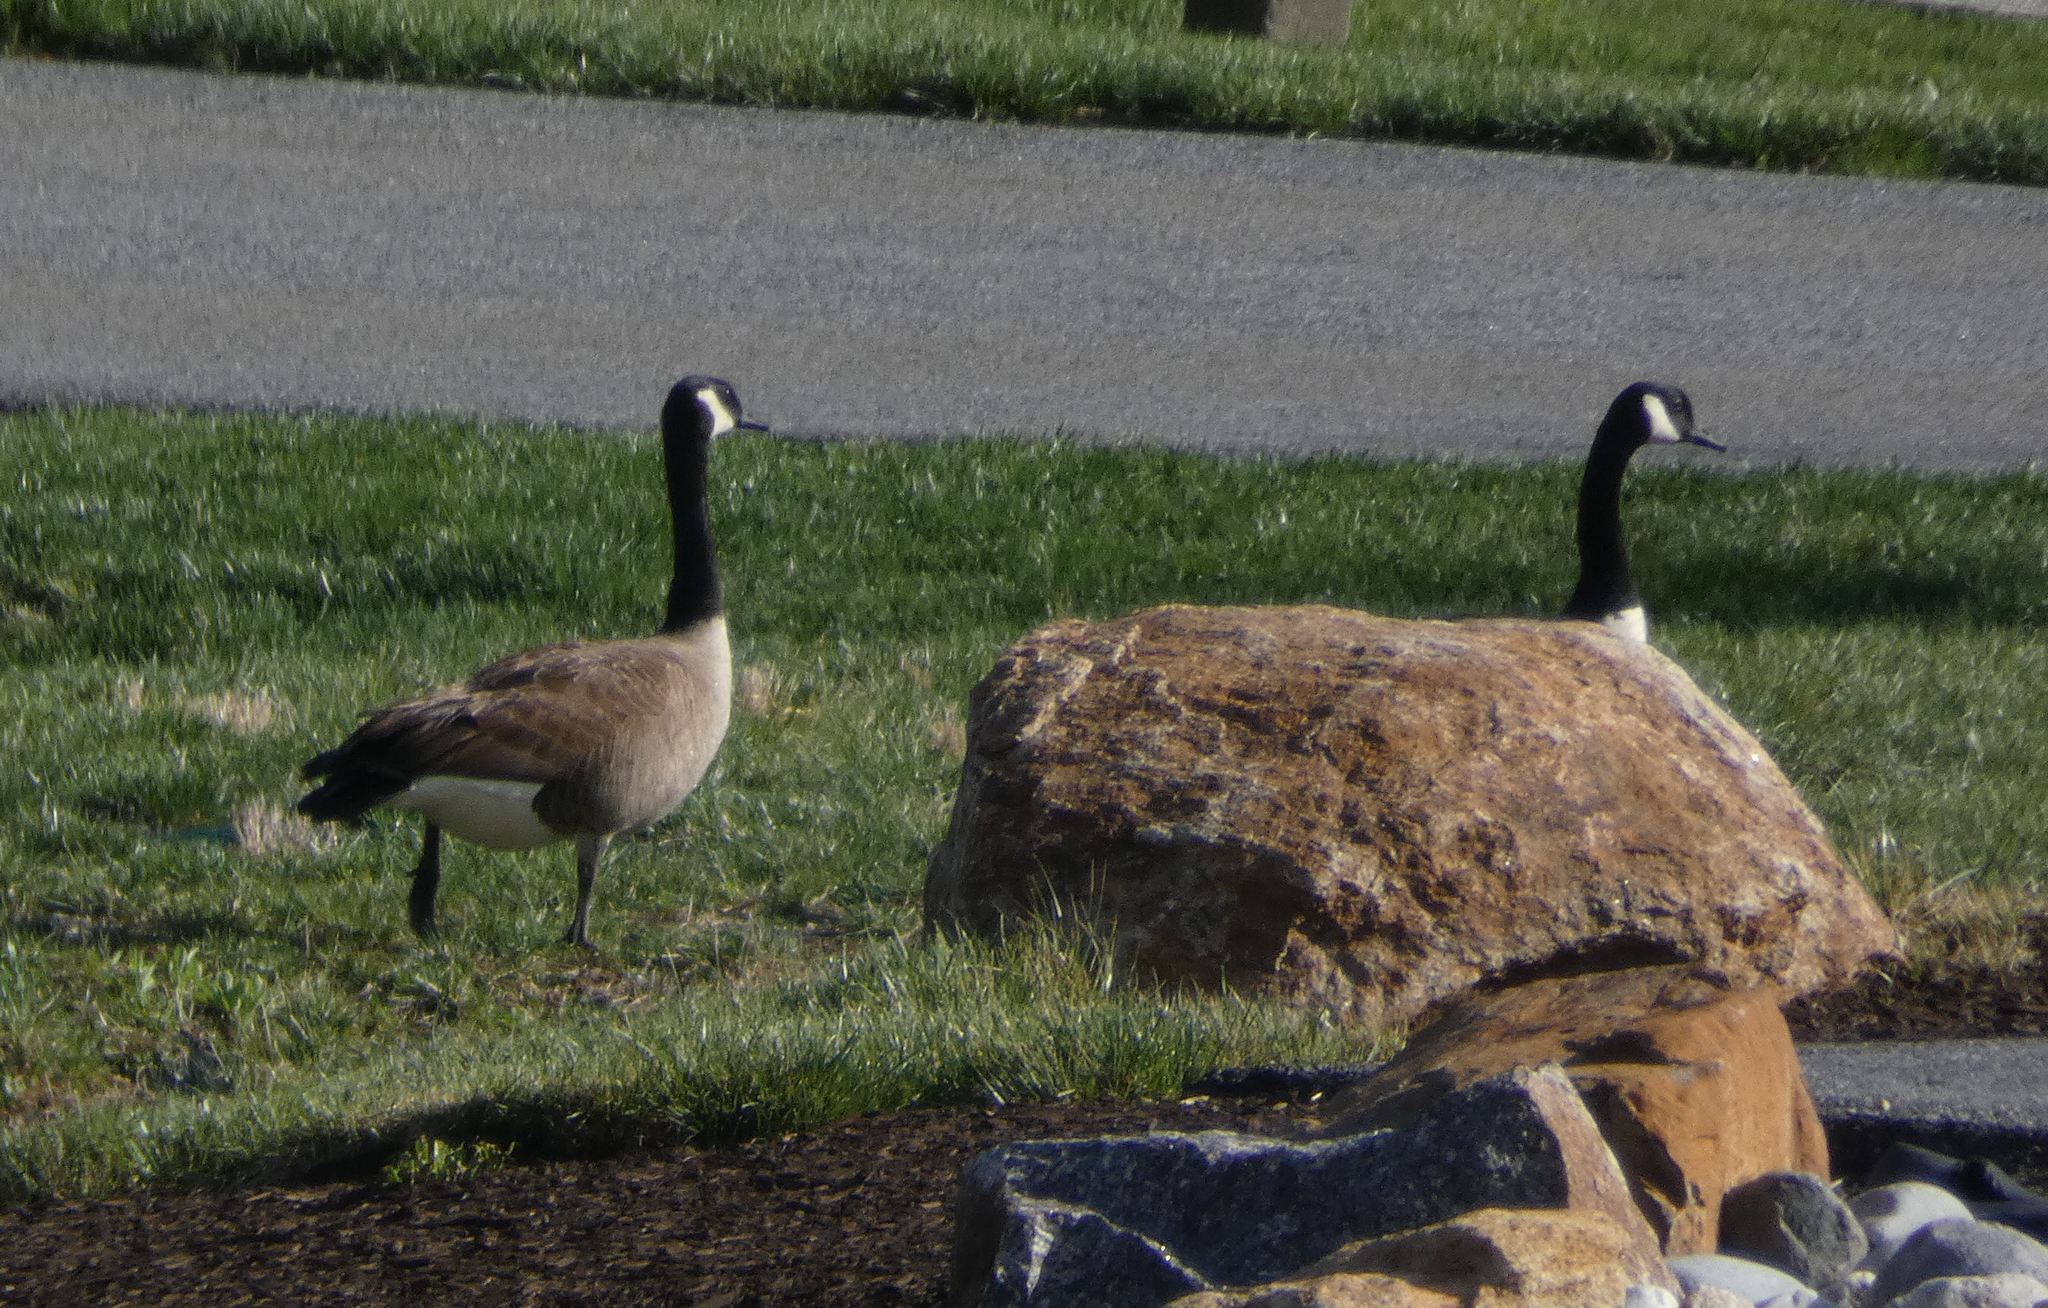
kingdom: Animalia
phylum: Chordata
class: Aves
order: Anseriformes
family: Anatidae
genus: Branta
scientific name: Branta canadensis
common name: Canada goose
